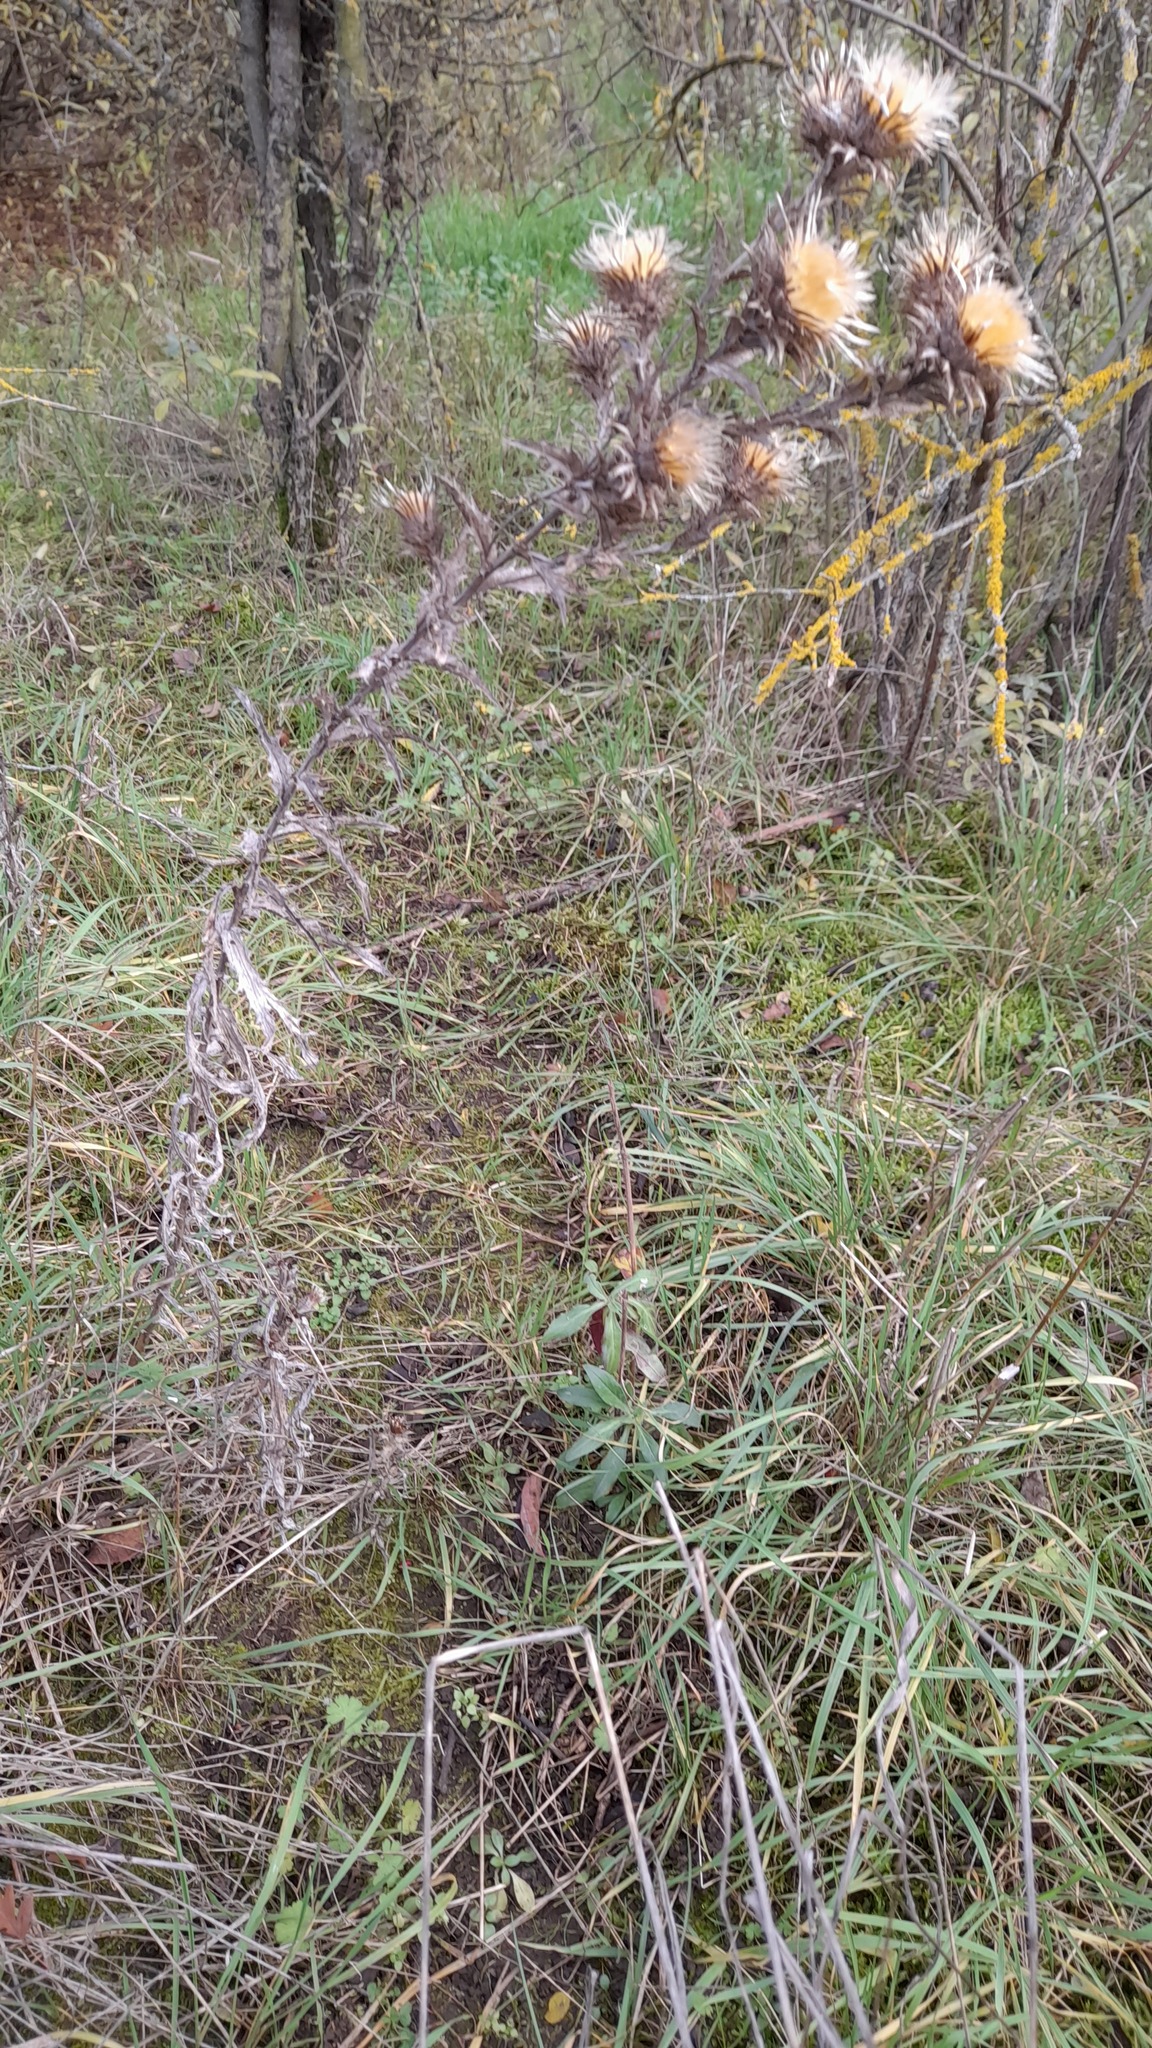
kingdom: Plantae
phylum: Tracheophyta
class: Magnoliopsida
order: Asterales
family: Asteraceae
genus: Carlina
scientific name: Carlina biebersteinii
